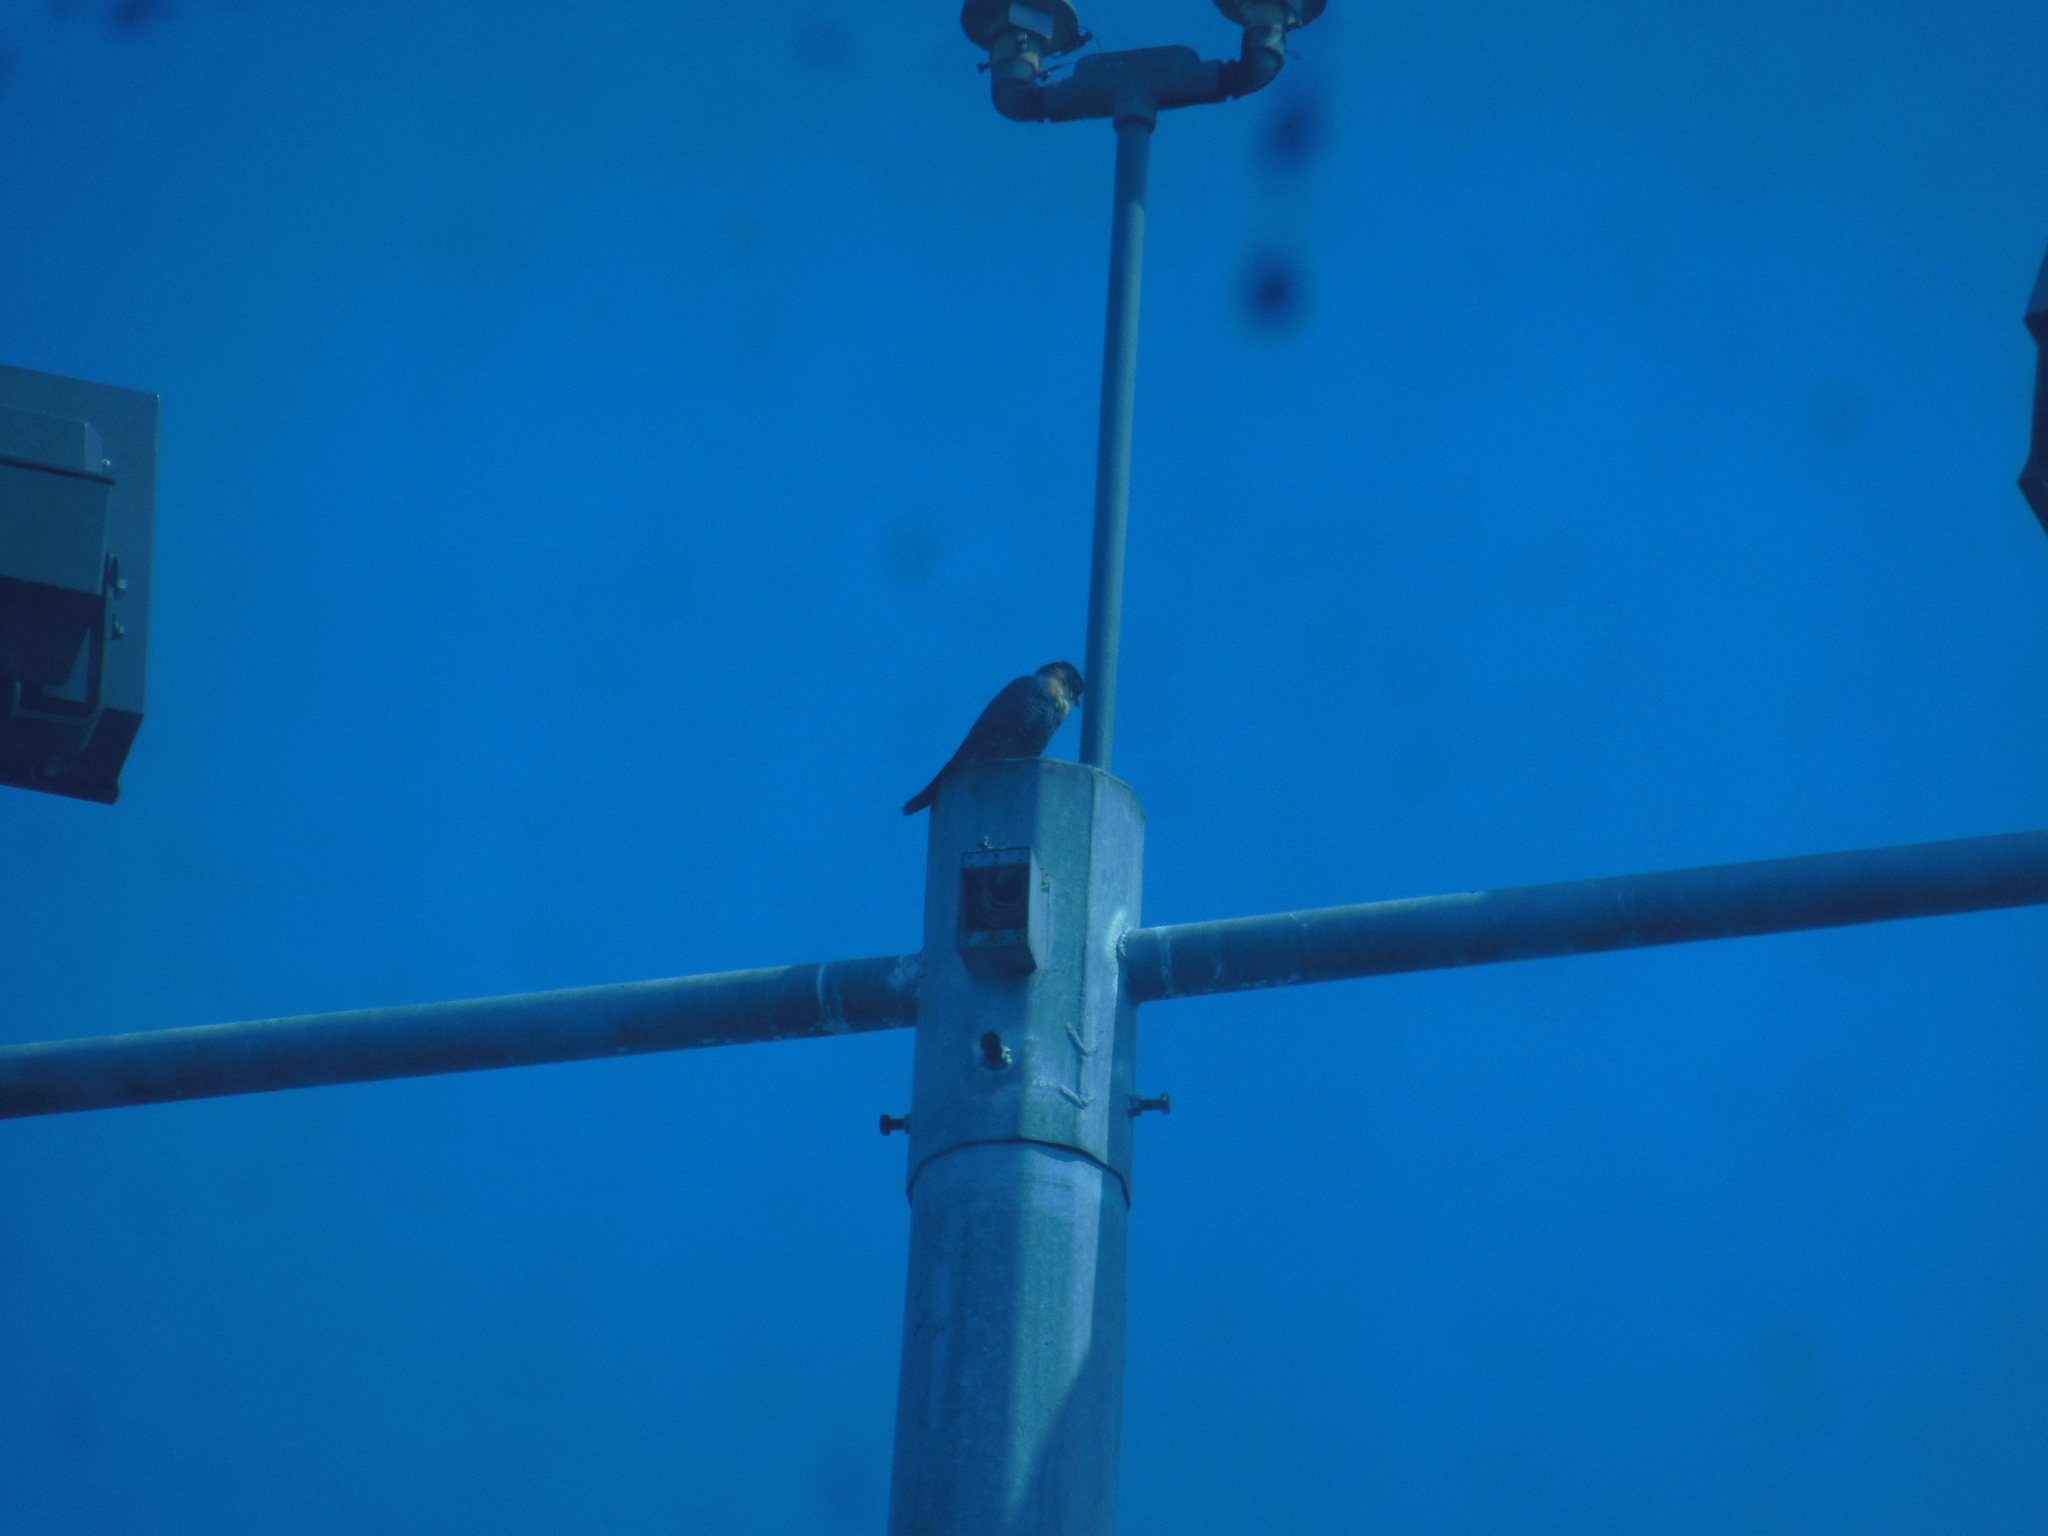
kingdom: Animalia
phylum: Chordata
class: Aves
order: Falconiformes
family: Falconidae
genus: Falco
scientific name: Falco rufigularis
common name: Bat falcon
